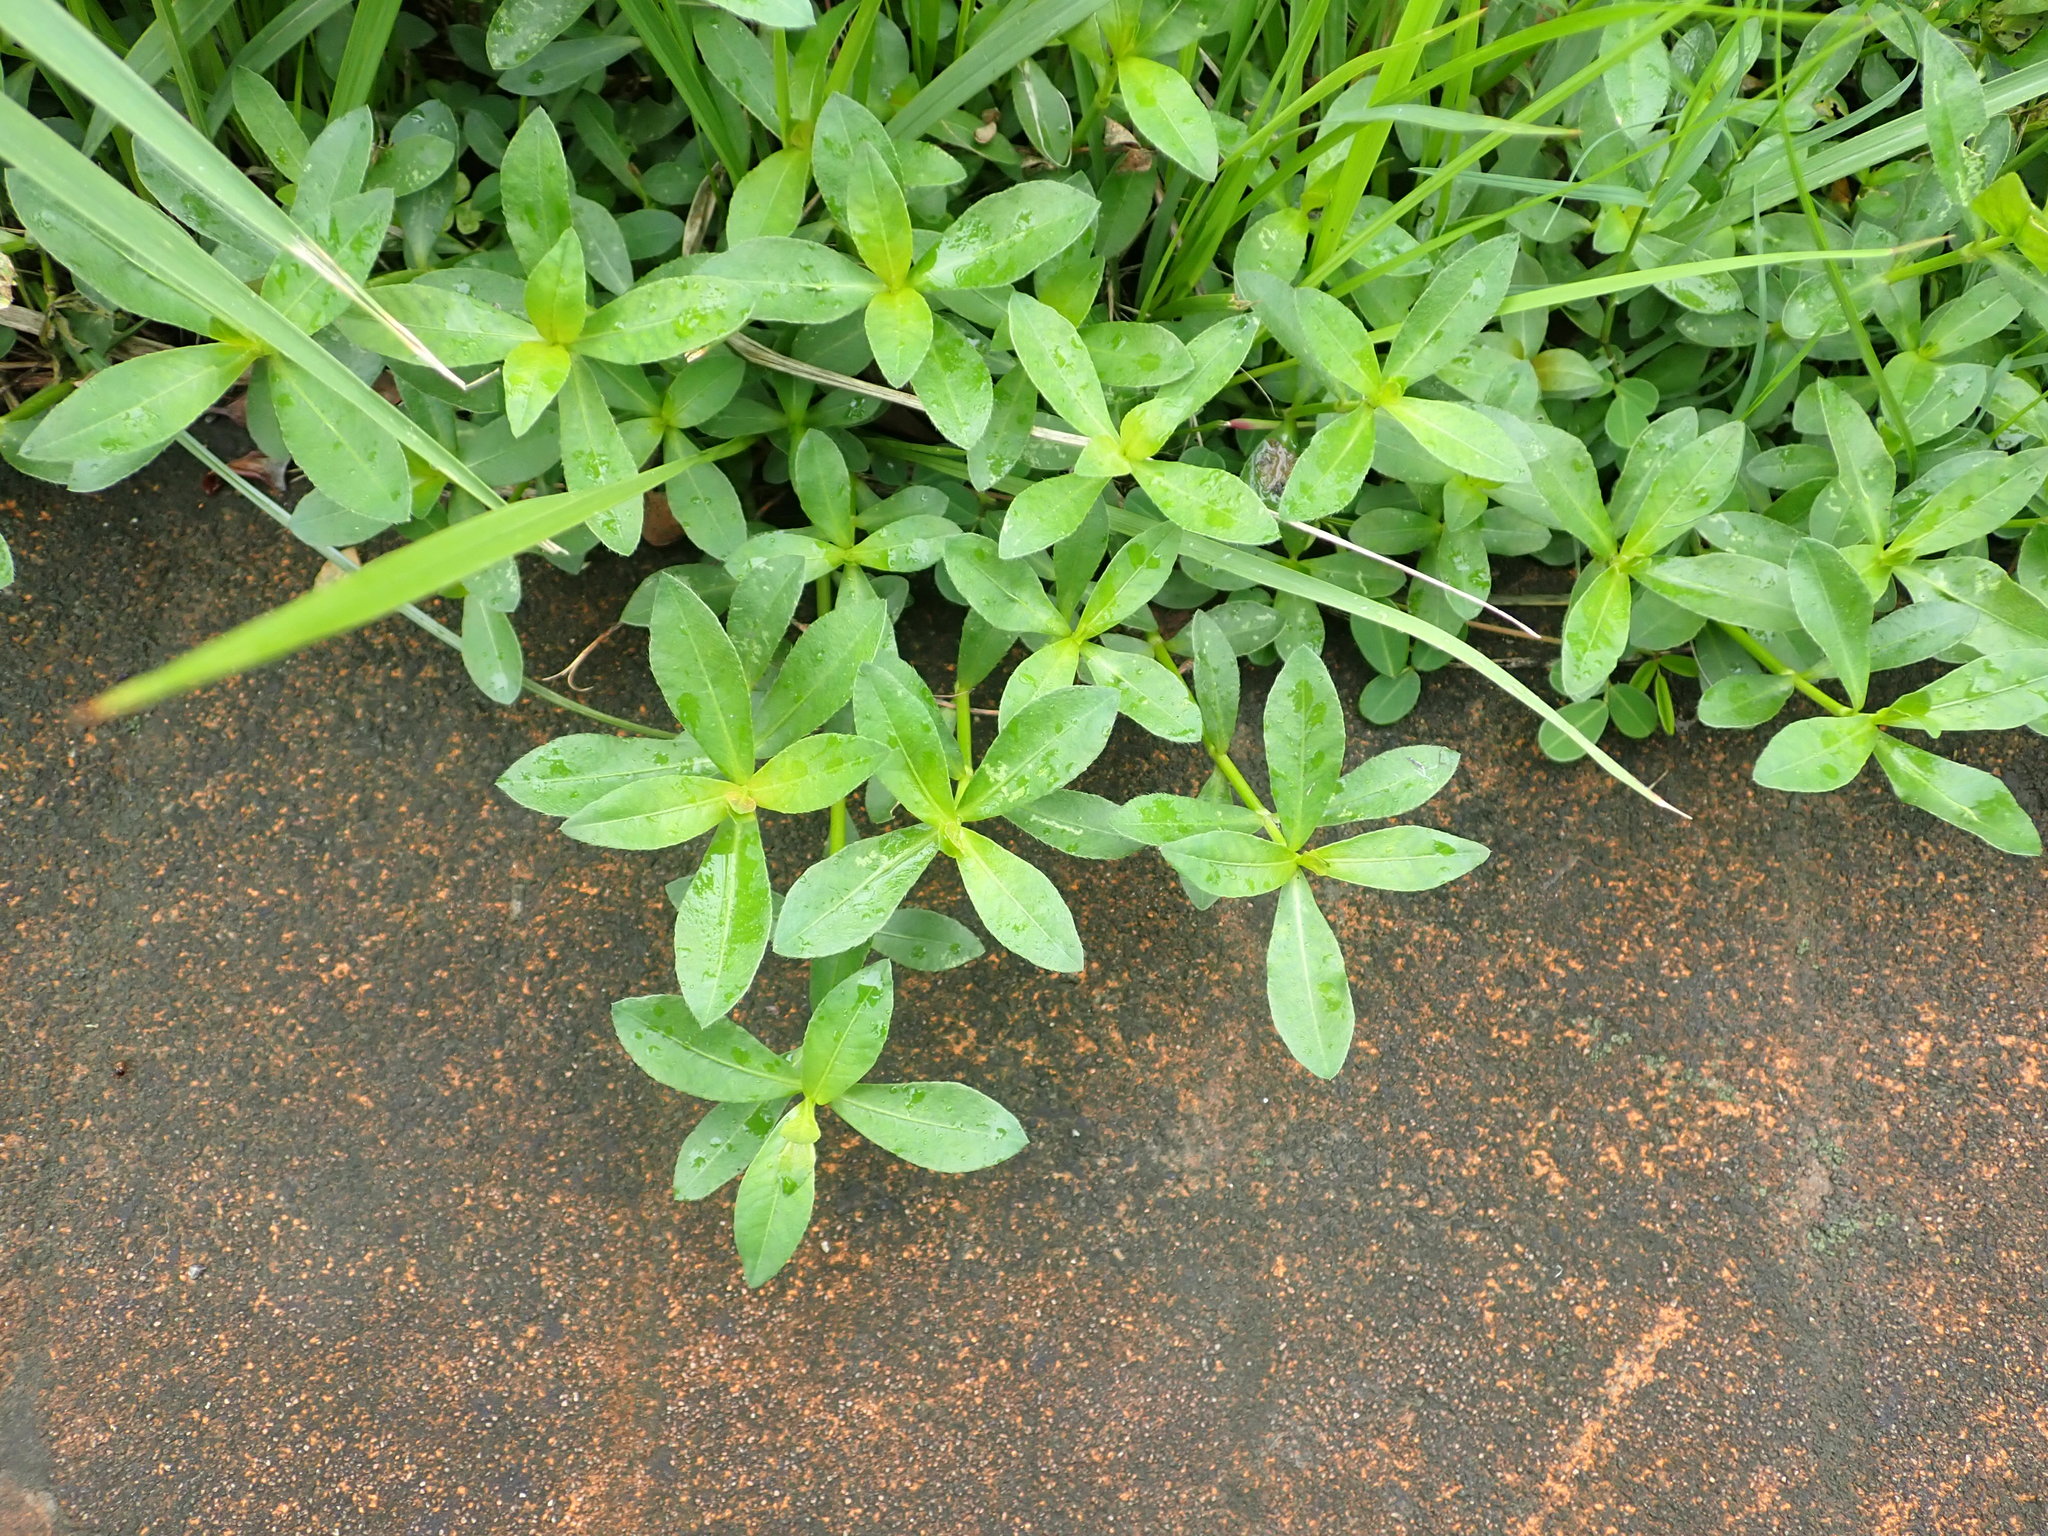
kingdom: Plantae
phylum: Tracheophyta
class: Magnoliopsida
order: Caryophyllales
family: Amaranthaceae
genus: Alternanthera
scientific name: Alternanthera philoxeroides
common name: Alligatorweed
